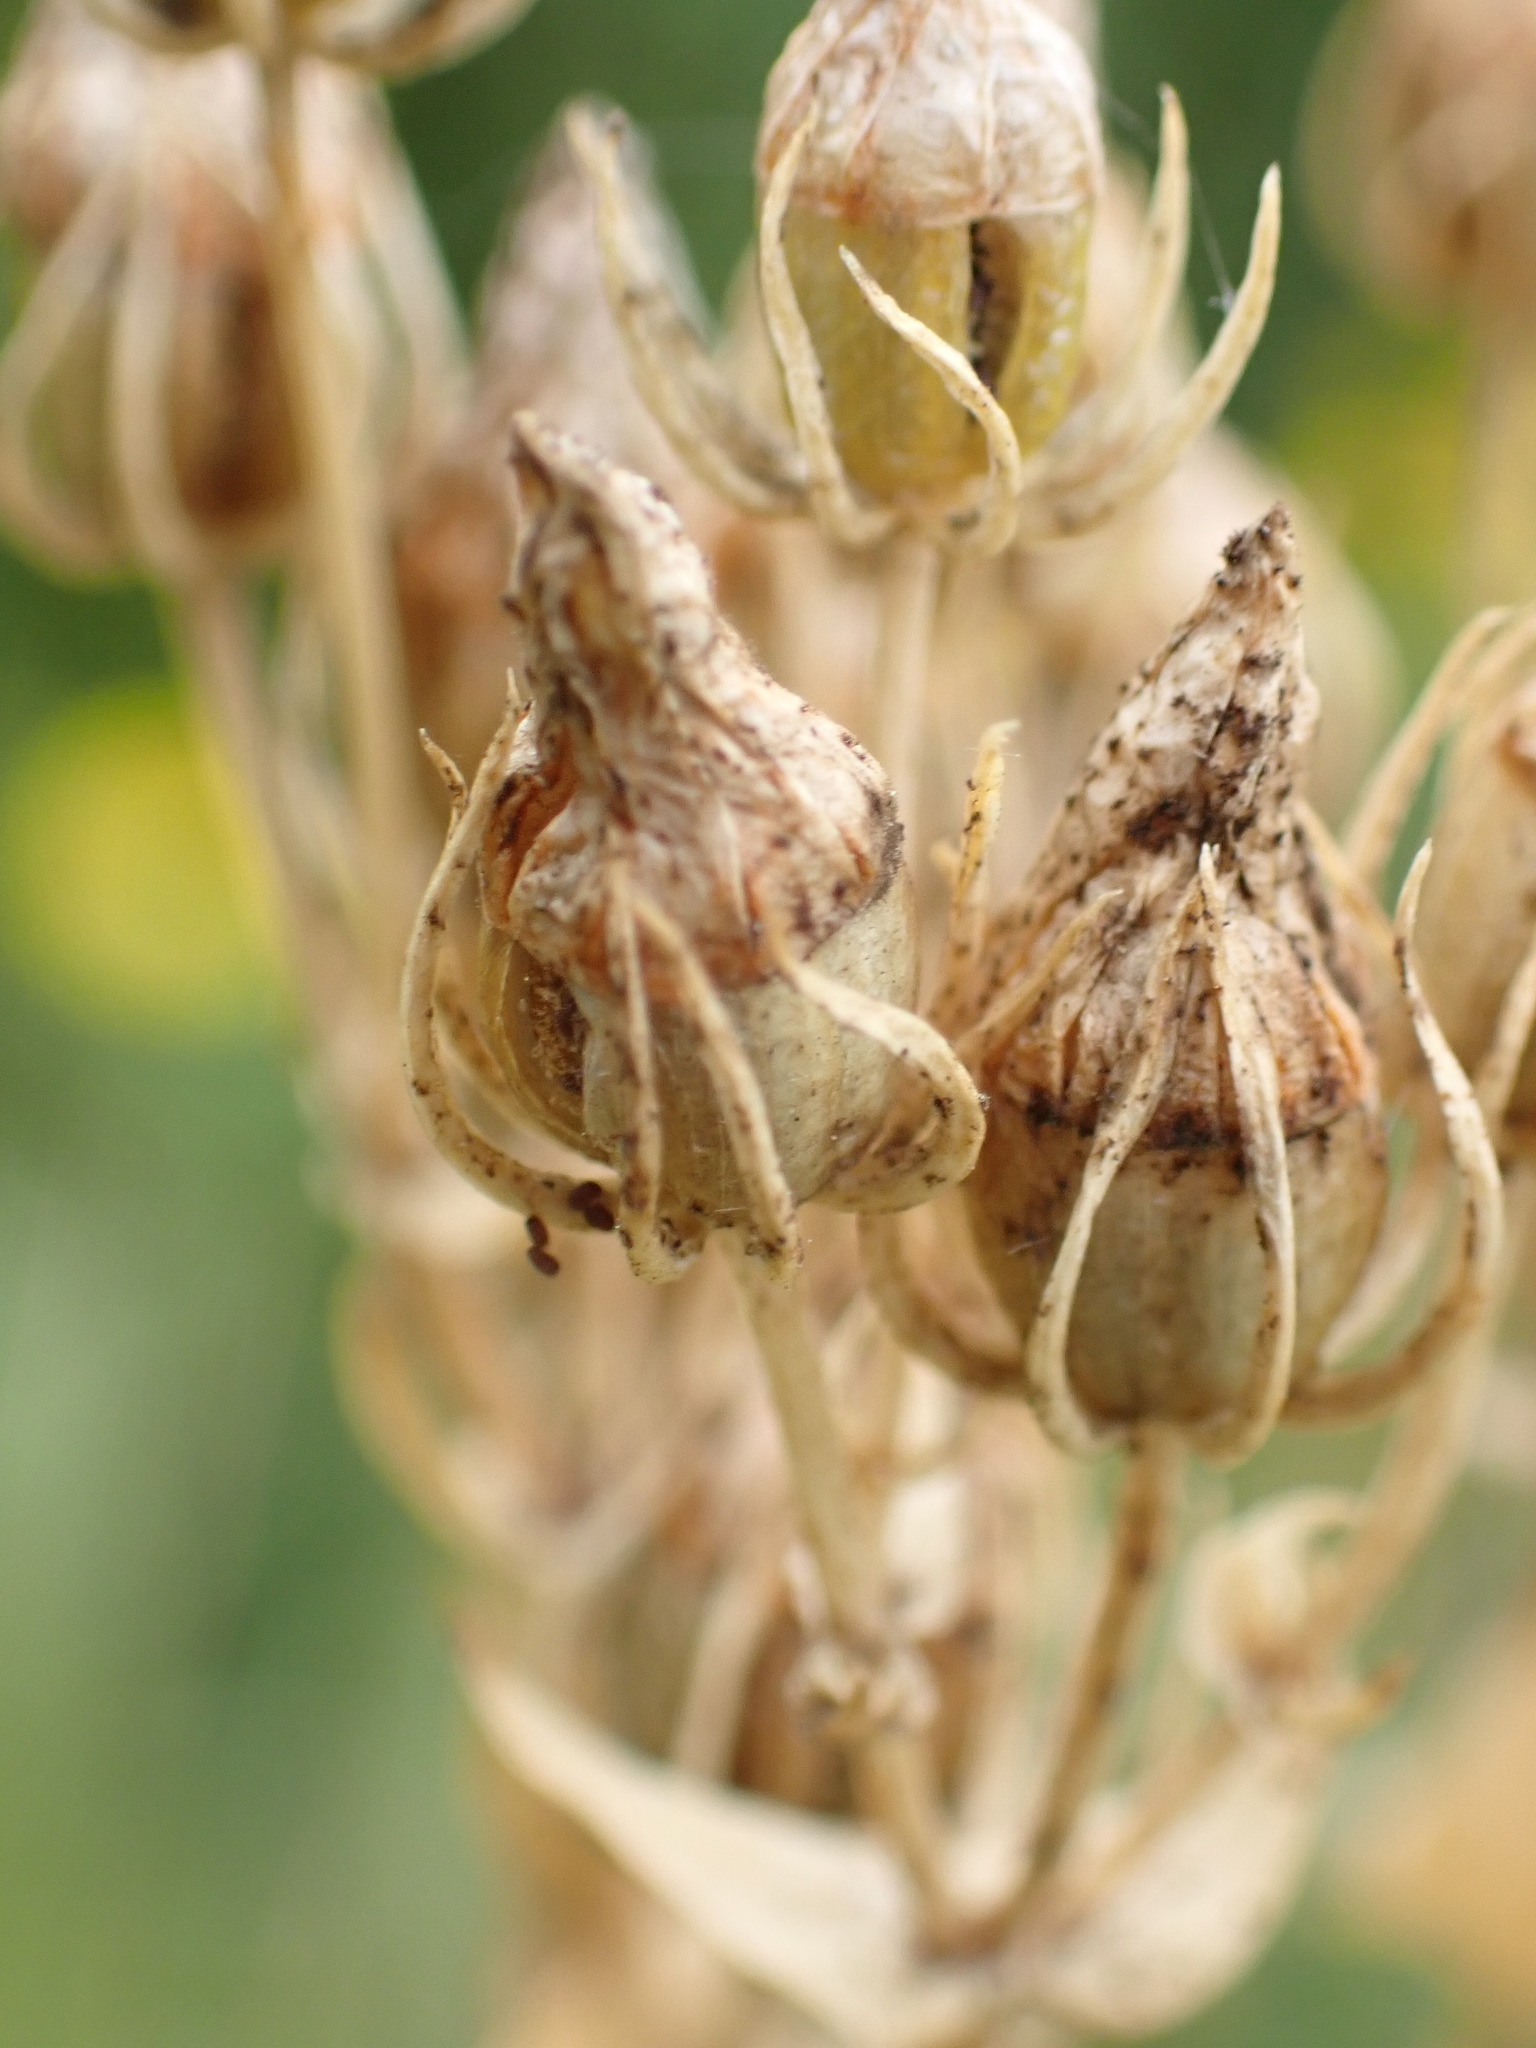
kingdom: Plantae
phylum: Tracheophyta
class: Magnoliopsida
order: Gentianales
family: Gentianaceae
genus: Blackstonia
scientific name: Blackstonia perfoliata
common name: Yellow-wort
